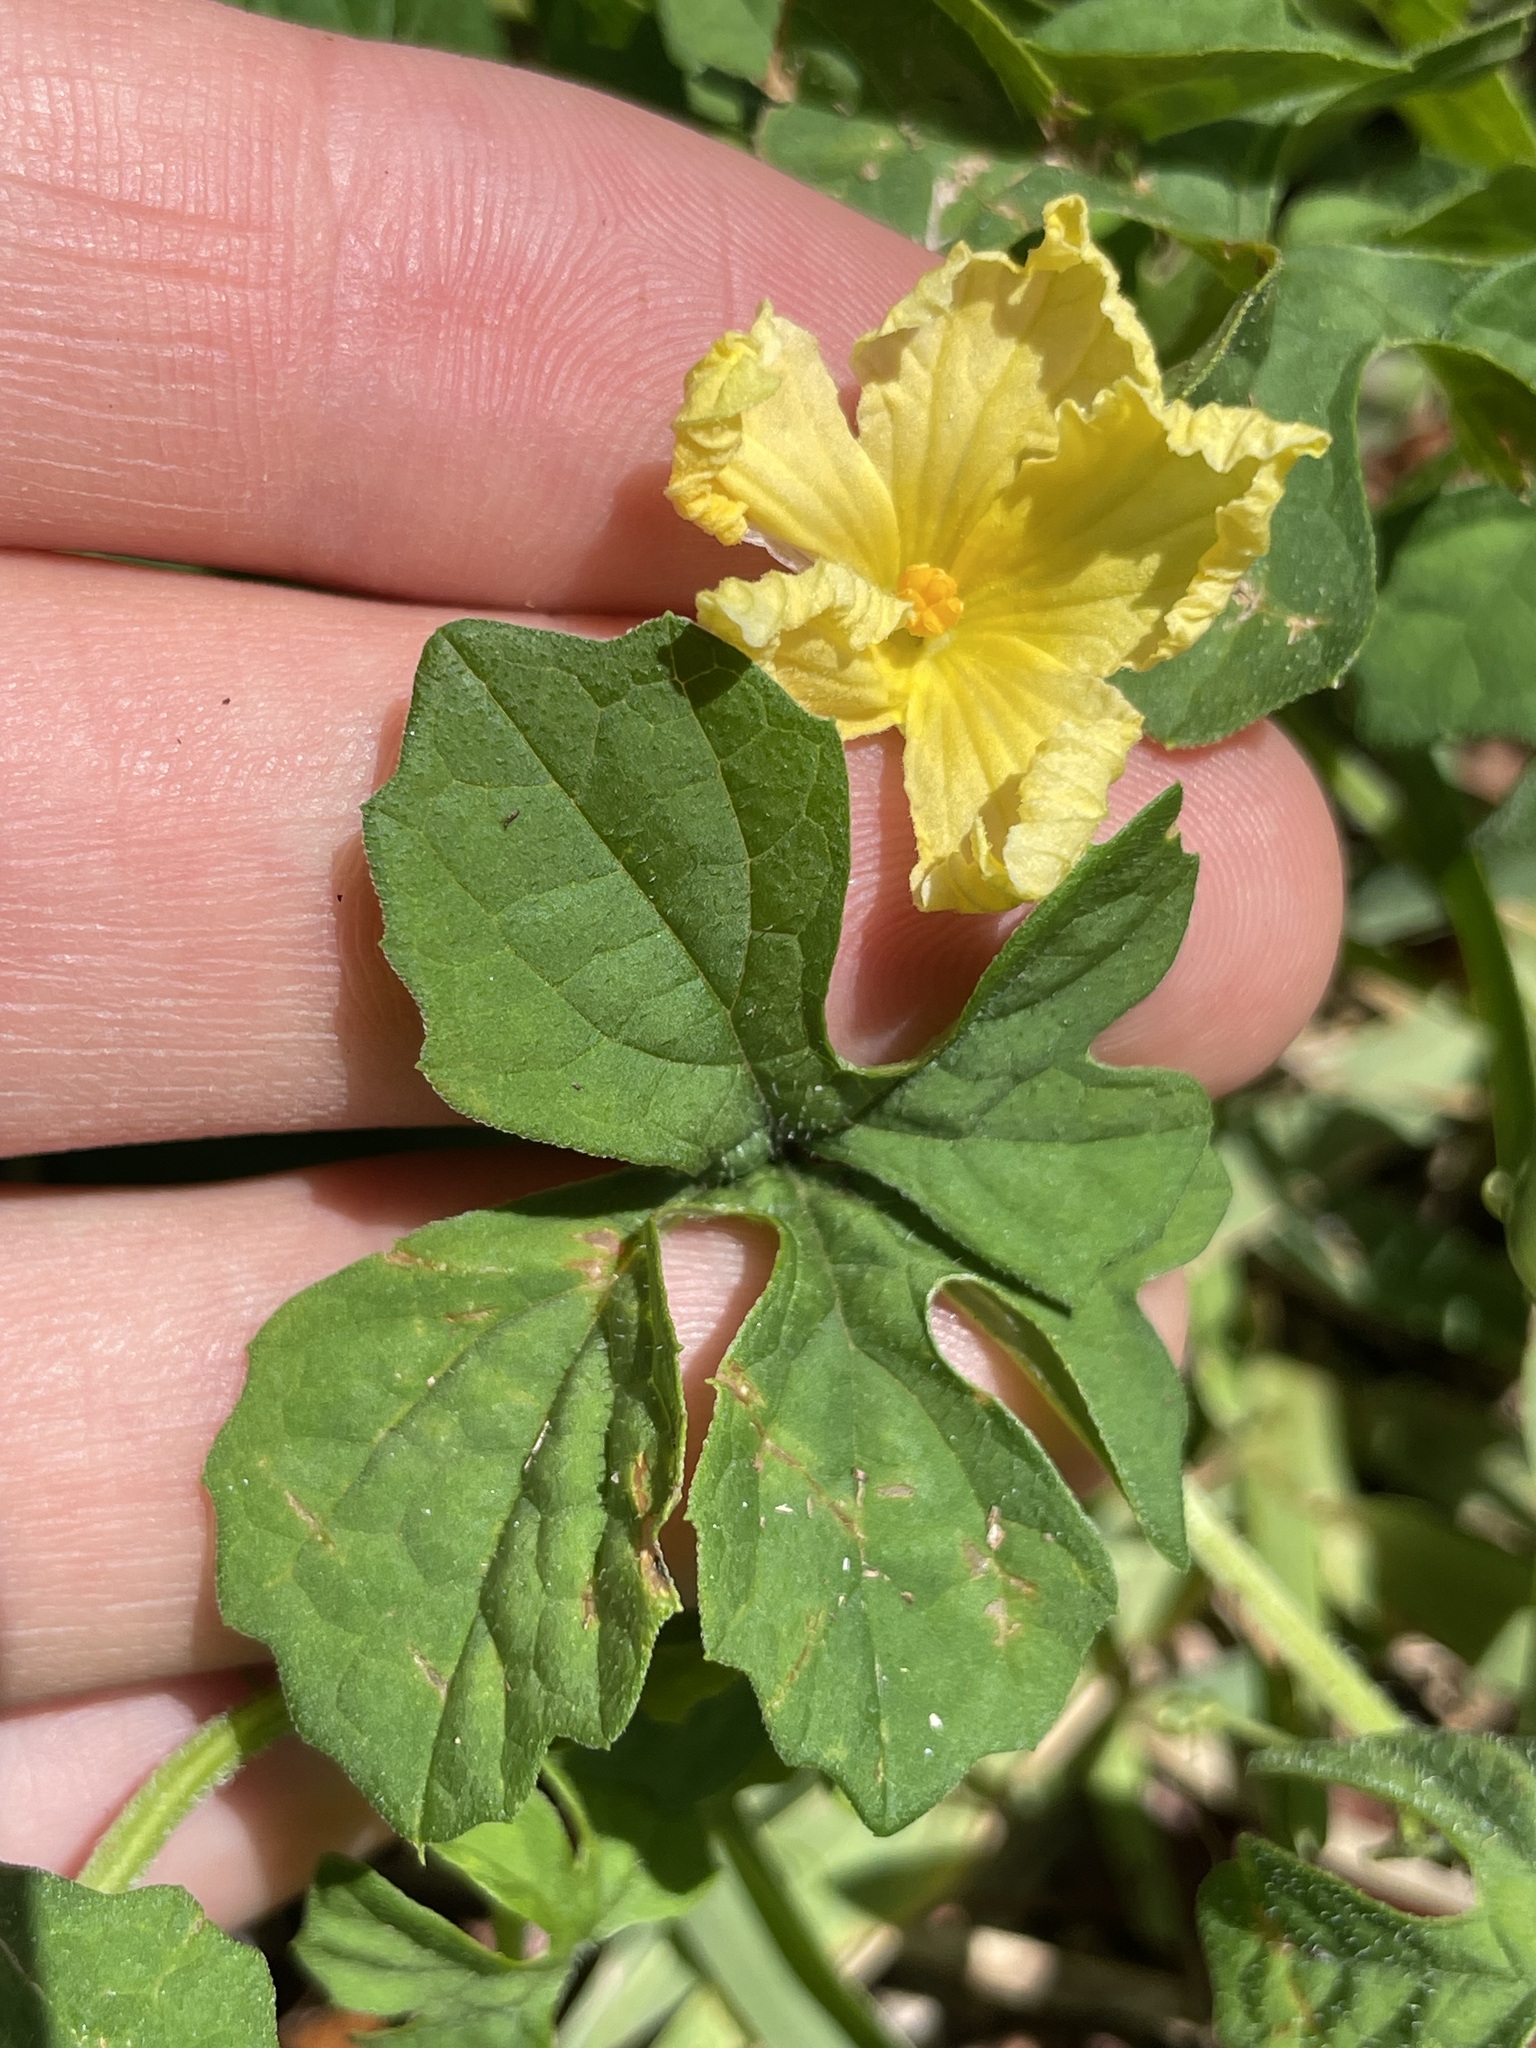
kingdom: Plantae
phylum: Tracheophyta
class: Magnoliopsida
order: Cucurbitales
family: Cucurbitaceae
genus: Momordica
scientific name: Momordica charantia
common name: Balsampear
